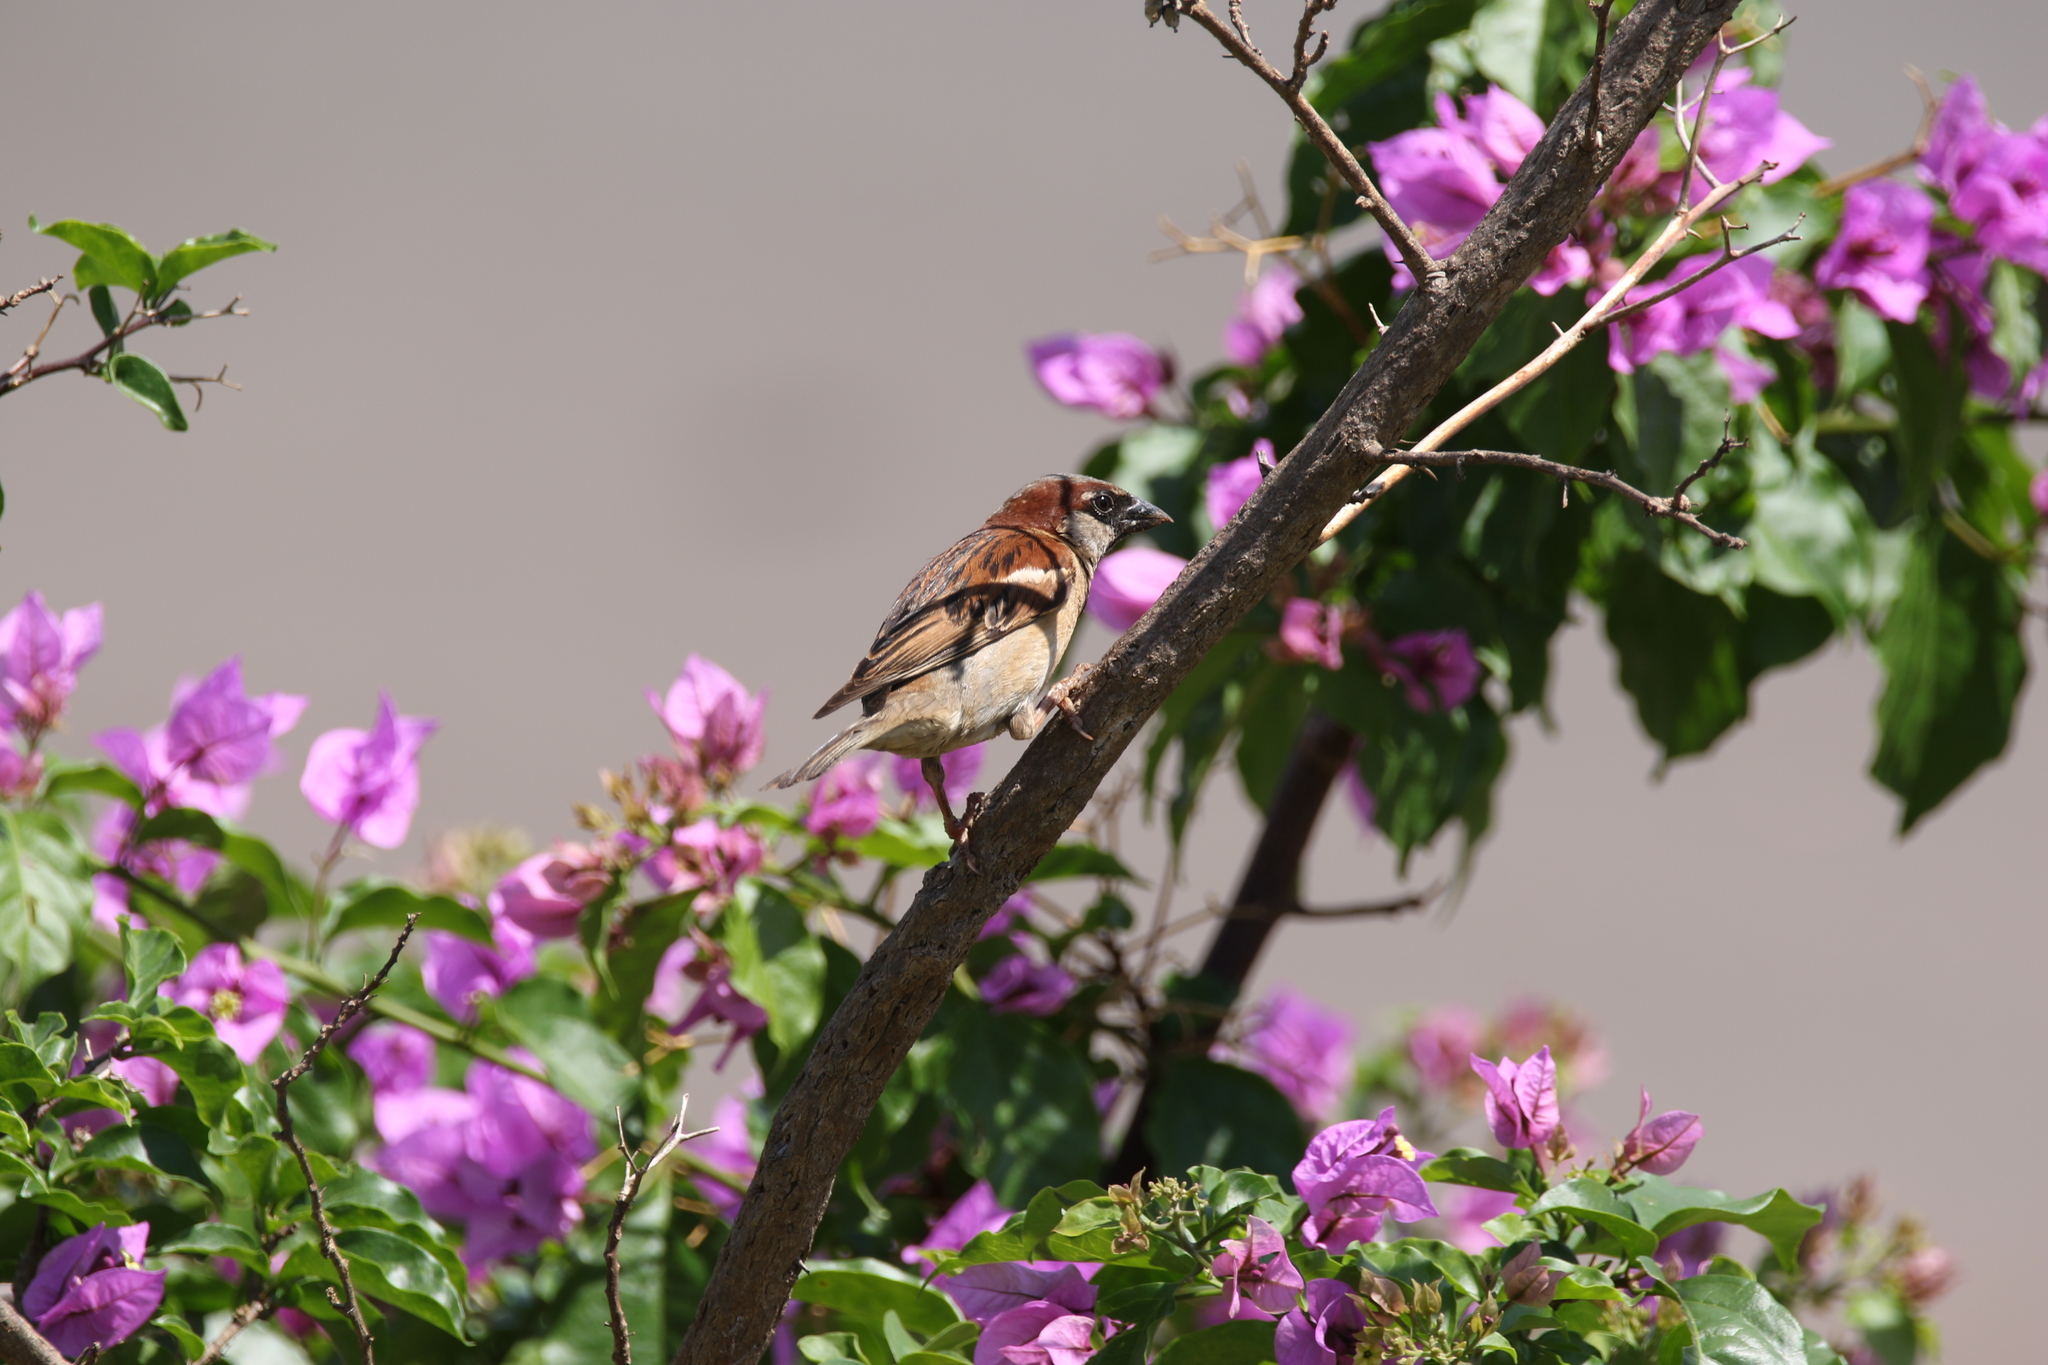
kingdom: Animalia
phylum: Chordata
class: Aves
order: Passeriformes
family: Passeridae
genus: Passer
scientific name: Passer domesticus
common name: House sparrow
